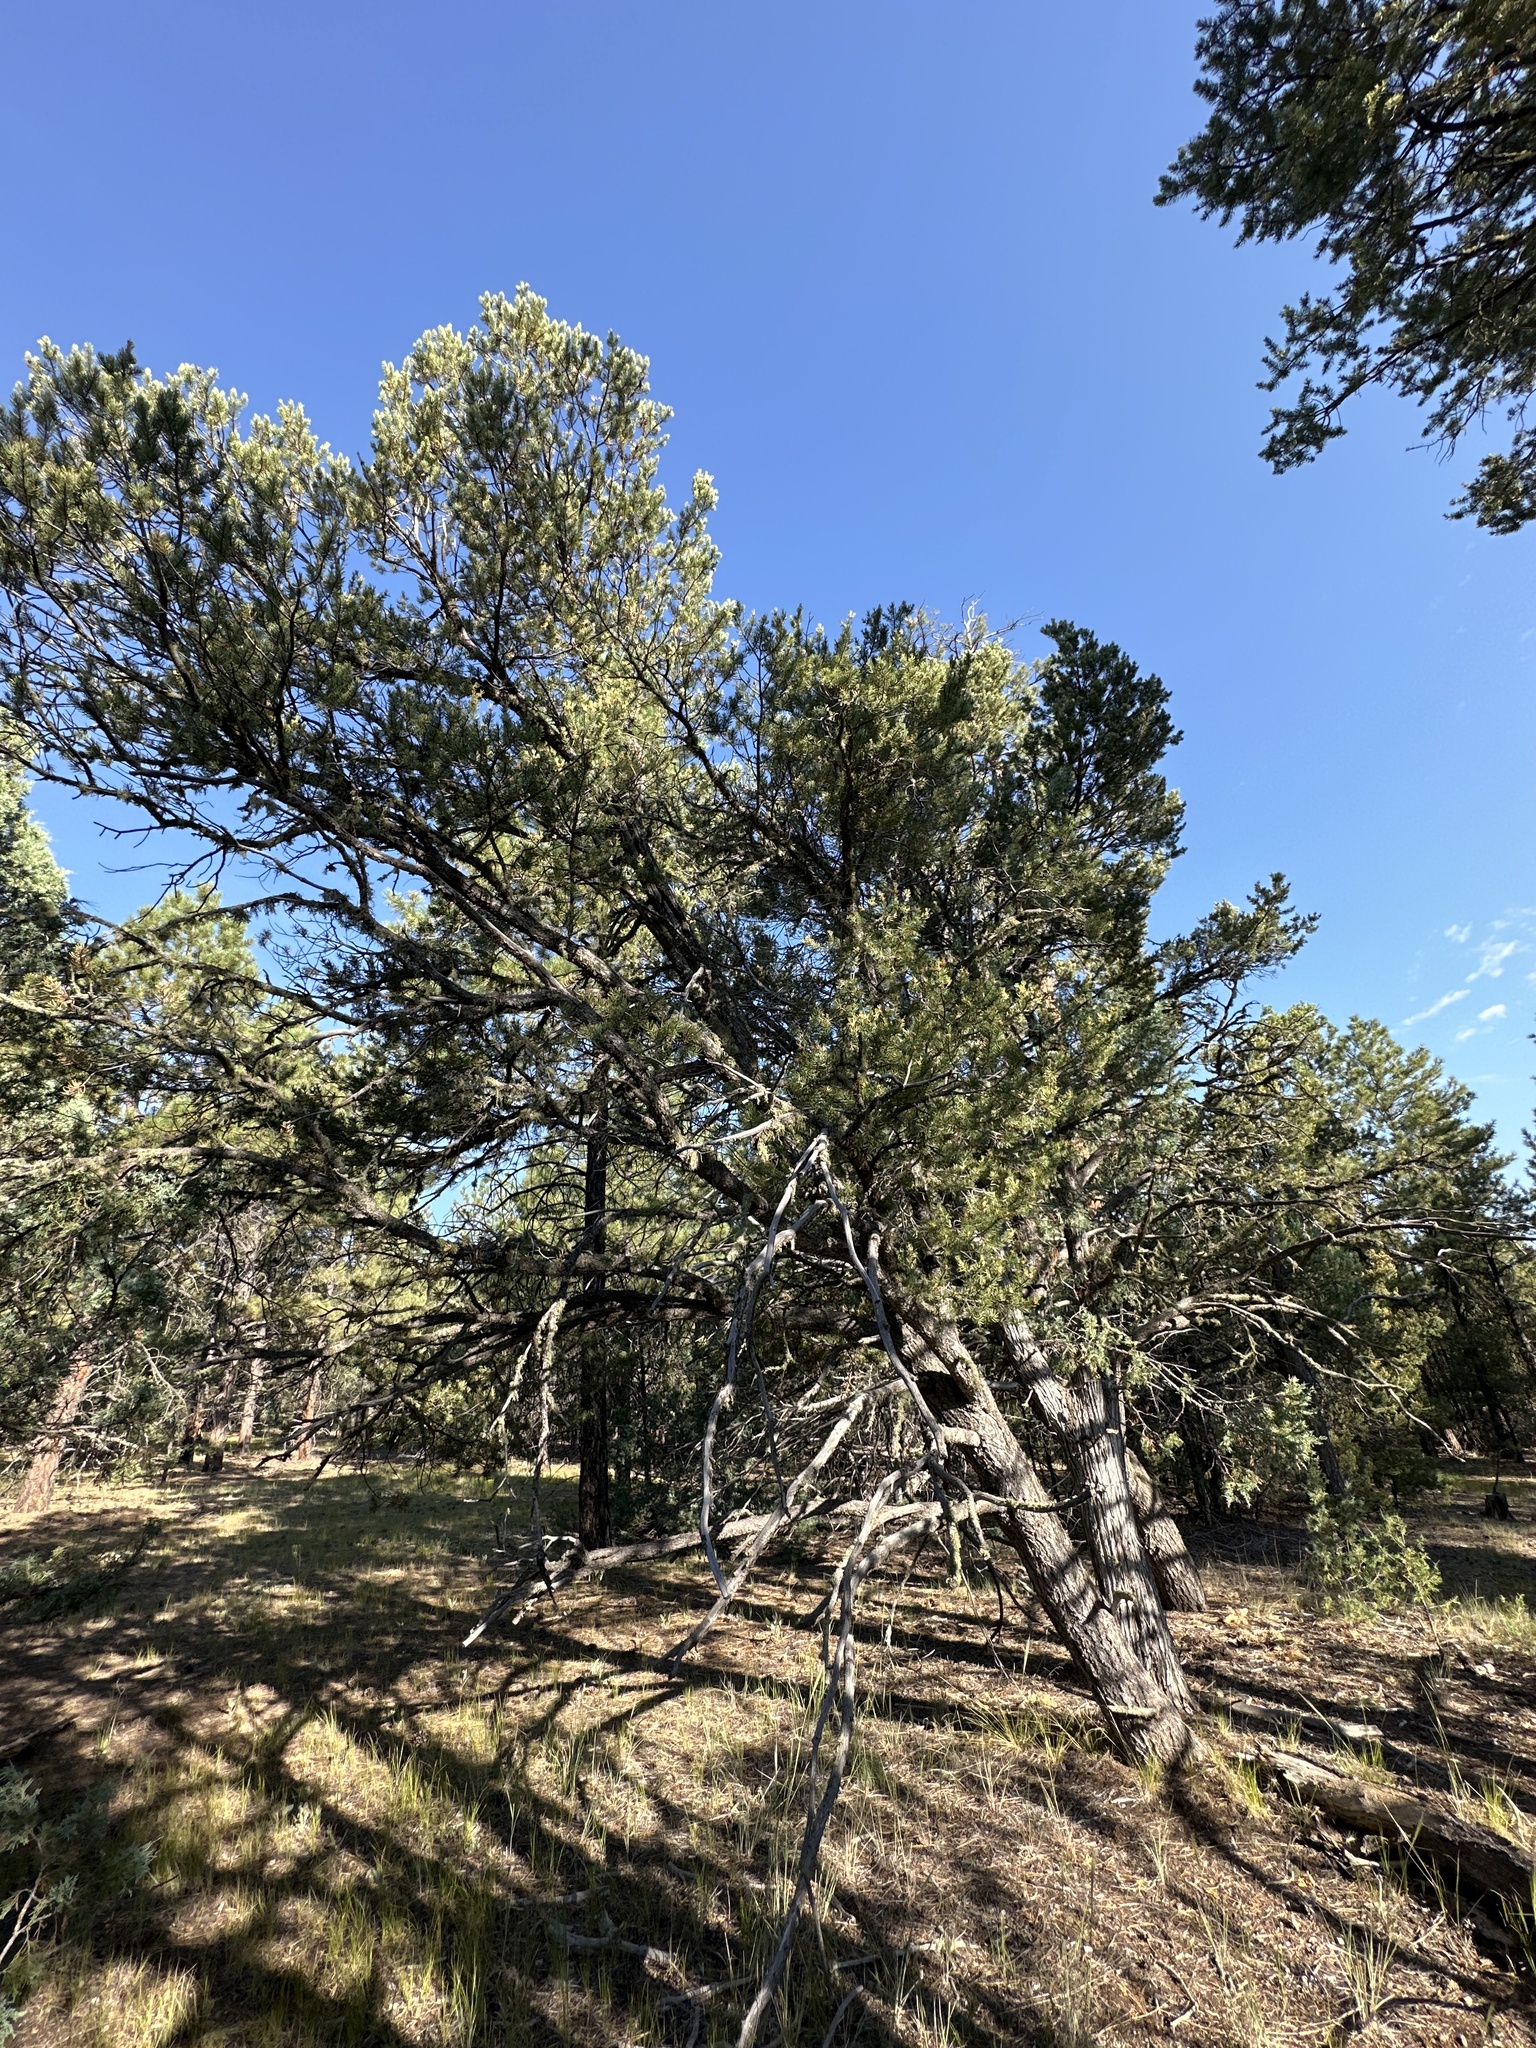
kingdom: Plantae
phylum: Tracheophyta
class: Pinopsida
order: Pinales
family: Pinaceae
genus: Pinus
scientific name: Pinus edulis
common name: Colorado pinyon
